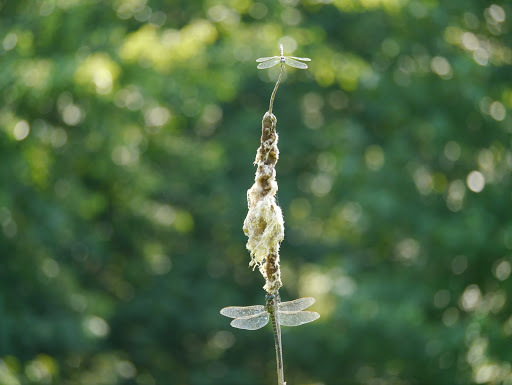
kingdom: Animalia
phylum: Arthropoda
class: Insecta
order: Odonata
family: Libellulidae
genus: Pachydiplax
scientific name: Pachydiplax longipennis
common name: Blue dasher
